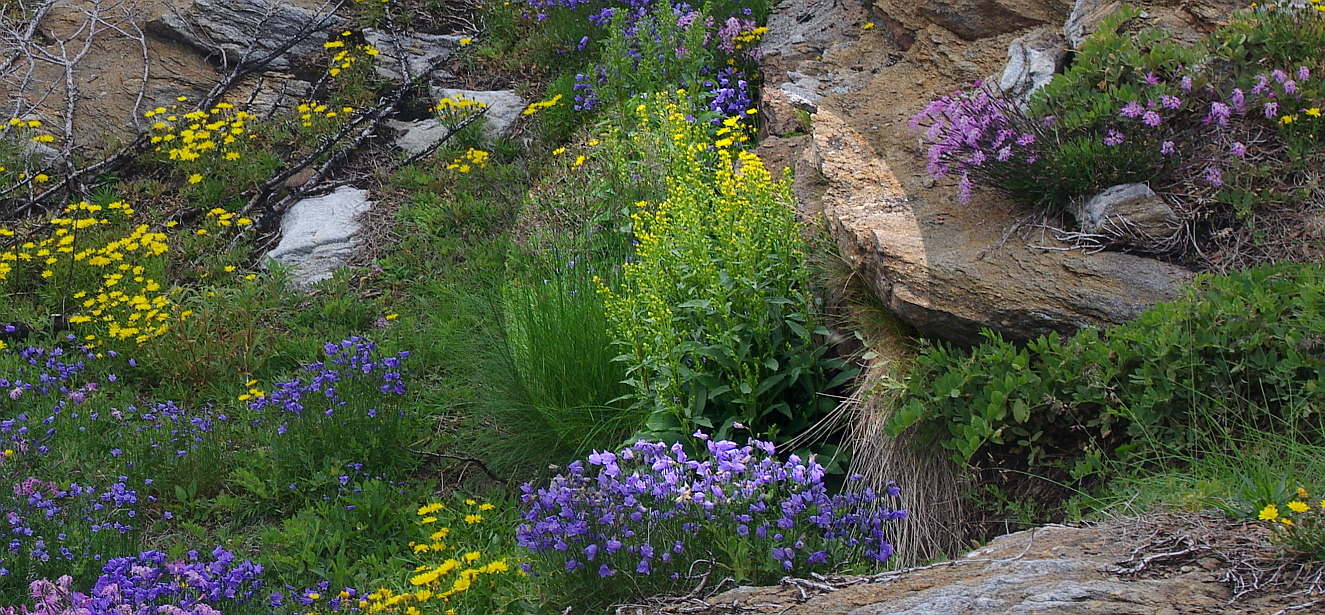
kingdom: Plantae
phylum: Tracheophyta
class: Magnoliopsida
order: Asterales
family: Asteraceae
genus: Solidago
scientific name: Solidago virgaurea
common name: Goldenrod
